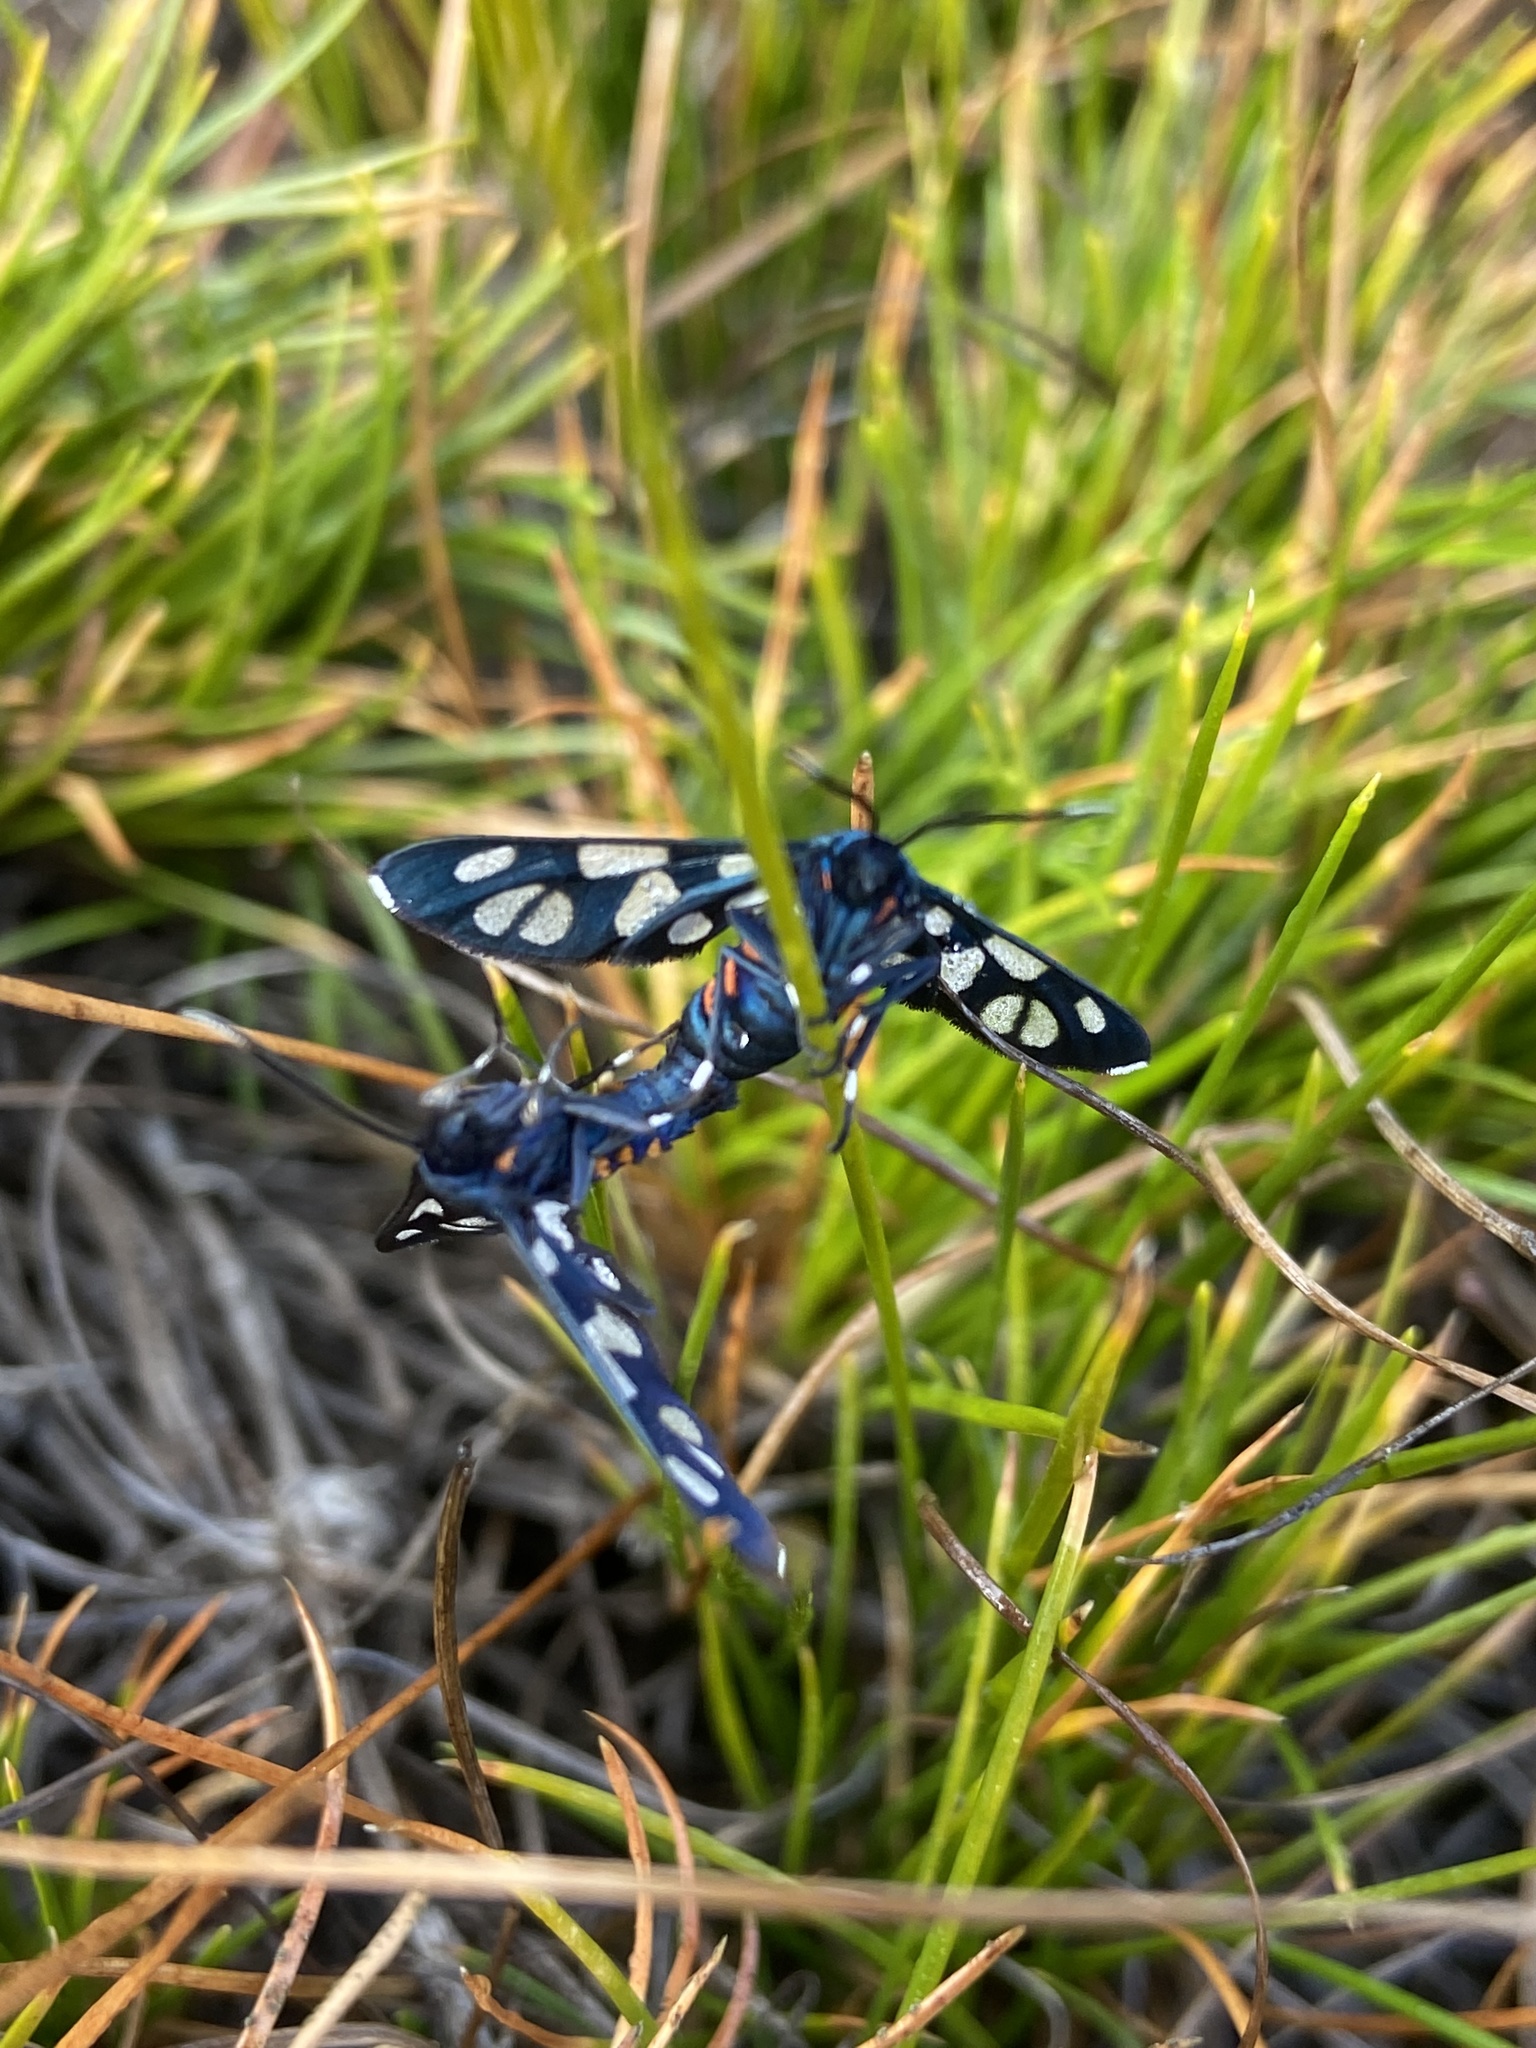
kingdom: Animalia
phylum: Arthropoda
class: Insecta
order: Lepidoptera
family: Erebidae
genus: Amata
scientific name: Amata cerbera
